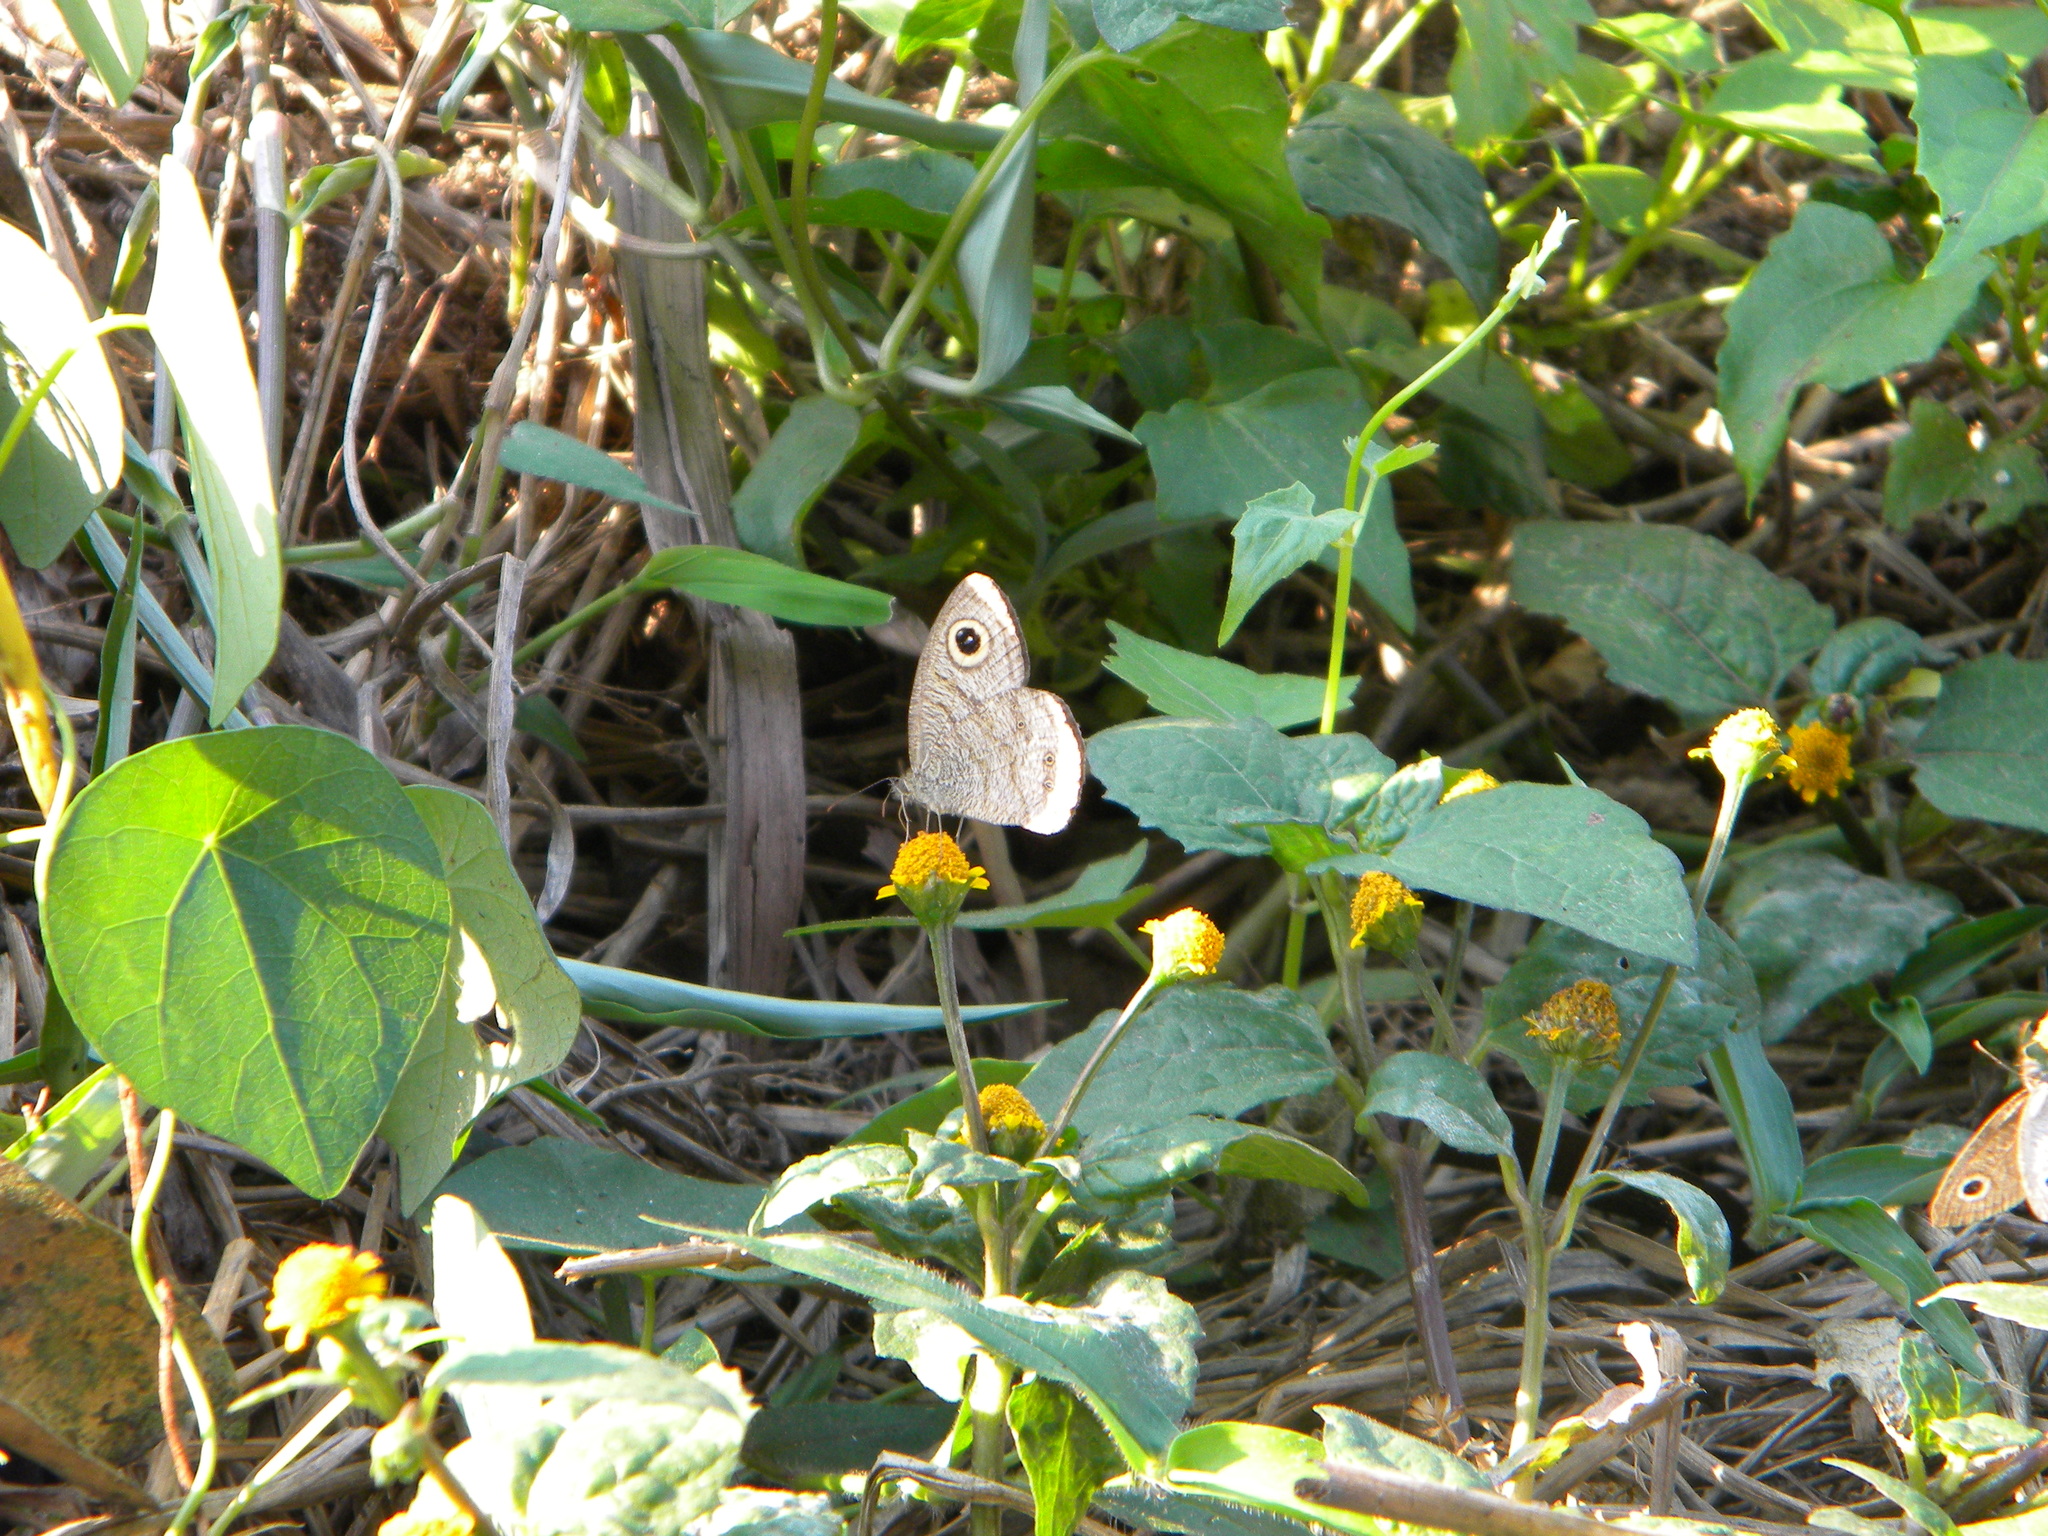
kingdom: Animalia
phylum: Arthropoda
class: Insecta
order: Lepidoptera
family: Nymphalidae
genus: Ypthima
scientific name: Ypthima nikaea
